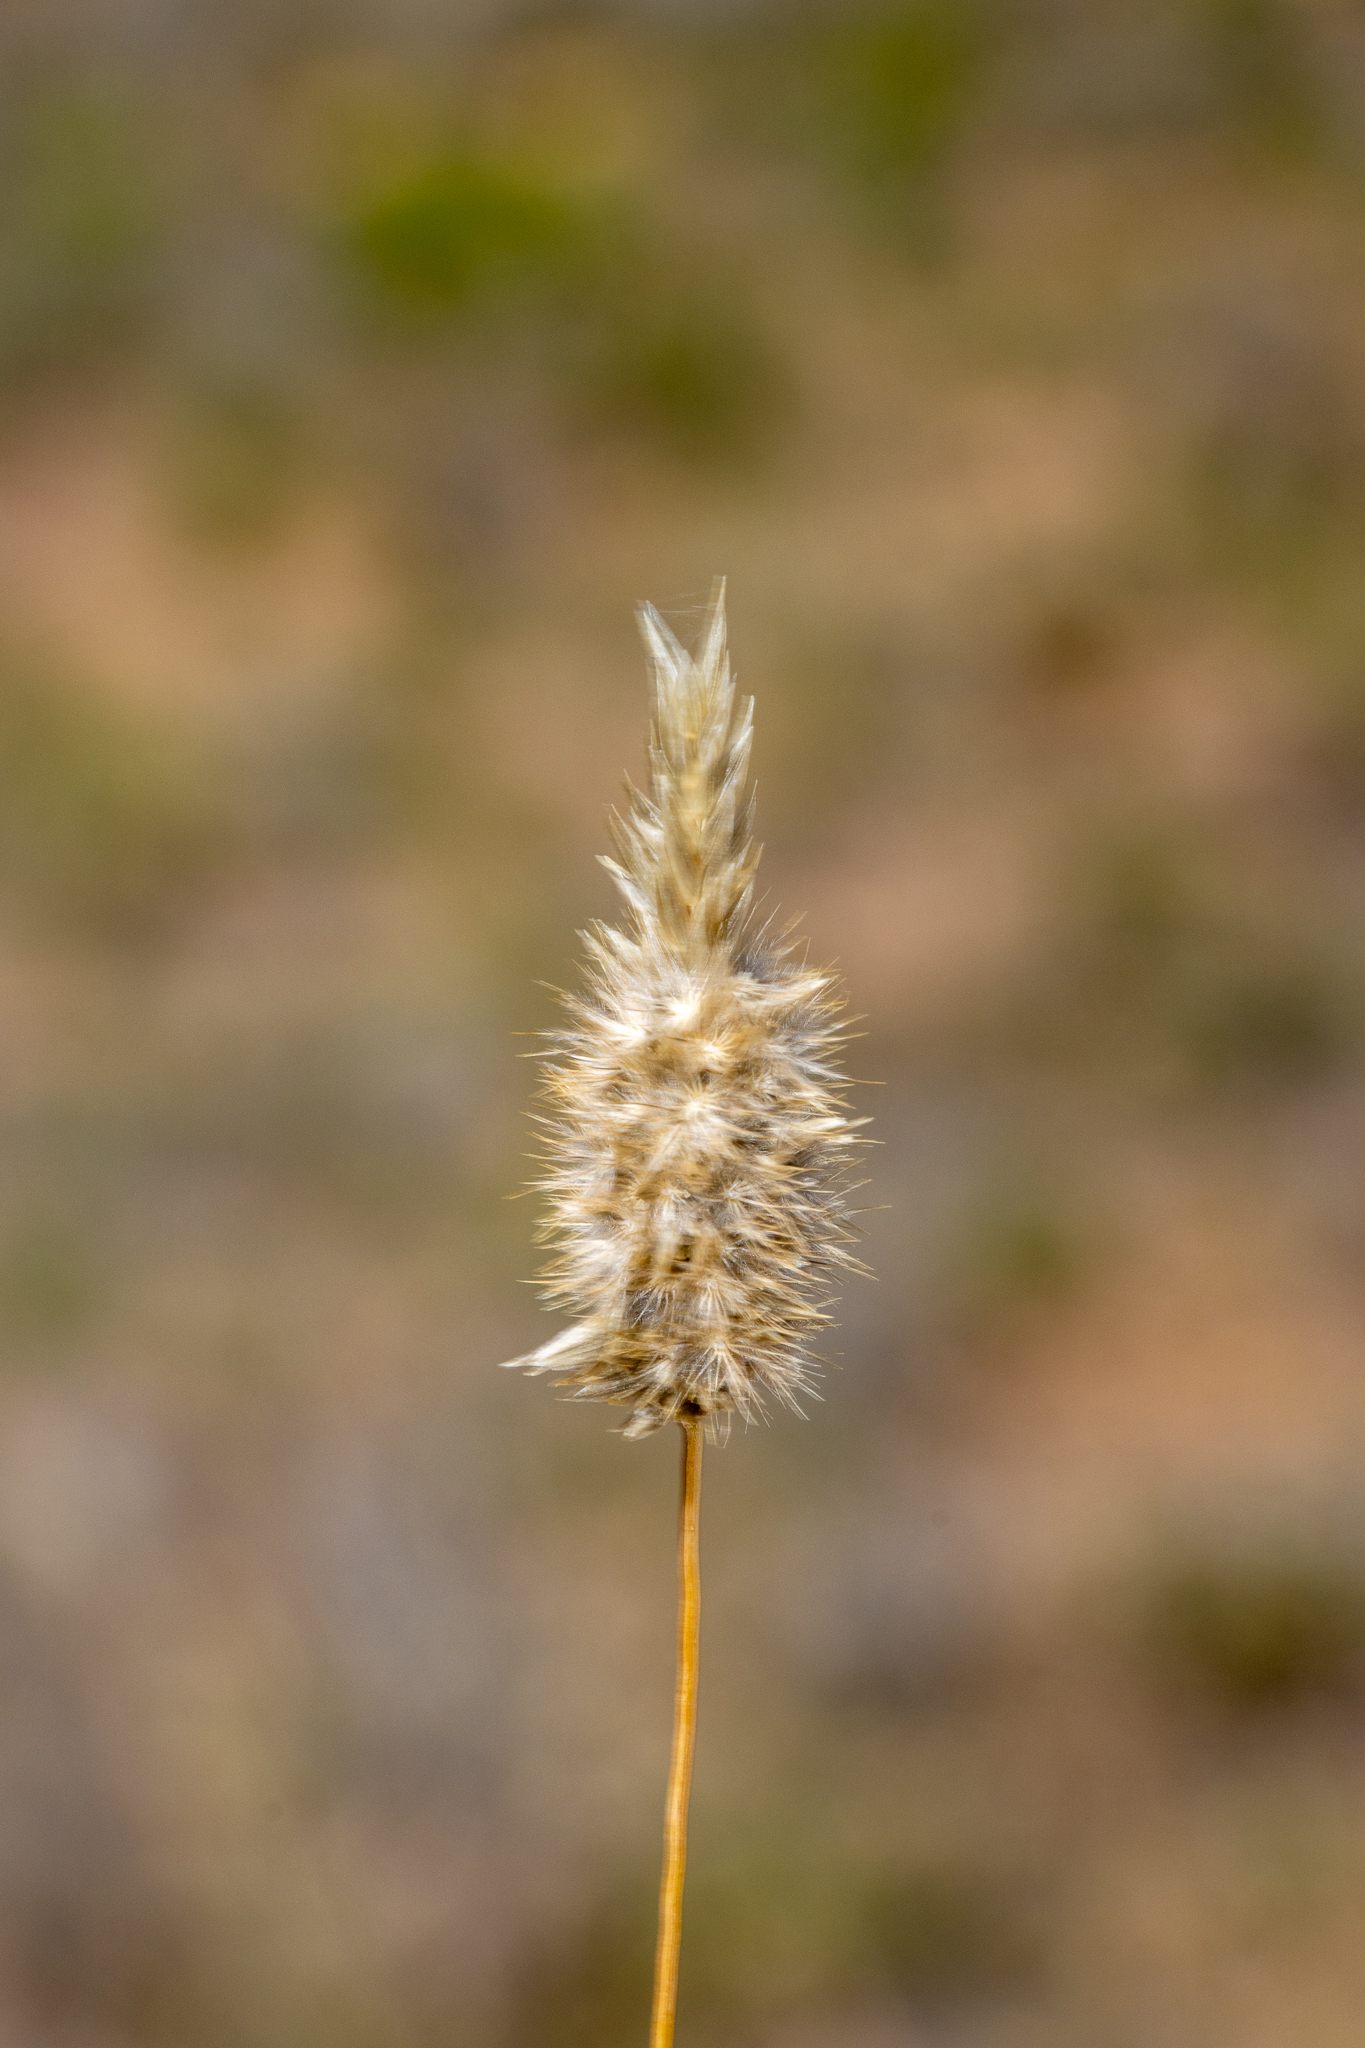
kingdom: Plantae
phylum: Tracheophyta
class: Liliopsida
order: Poales
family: Poaceae
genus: Enneapogon
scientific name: Enneapogon nigricans
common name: Pappus grass
